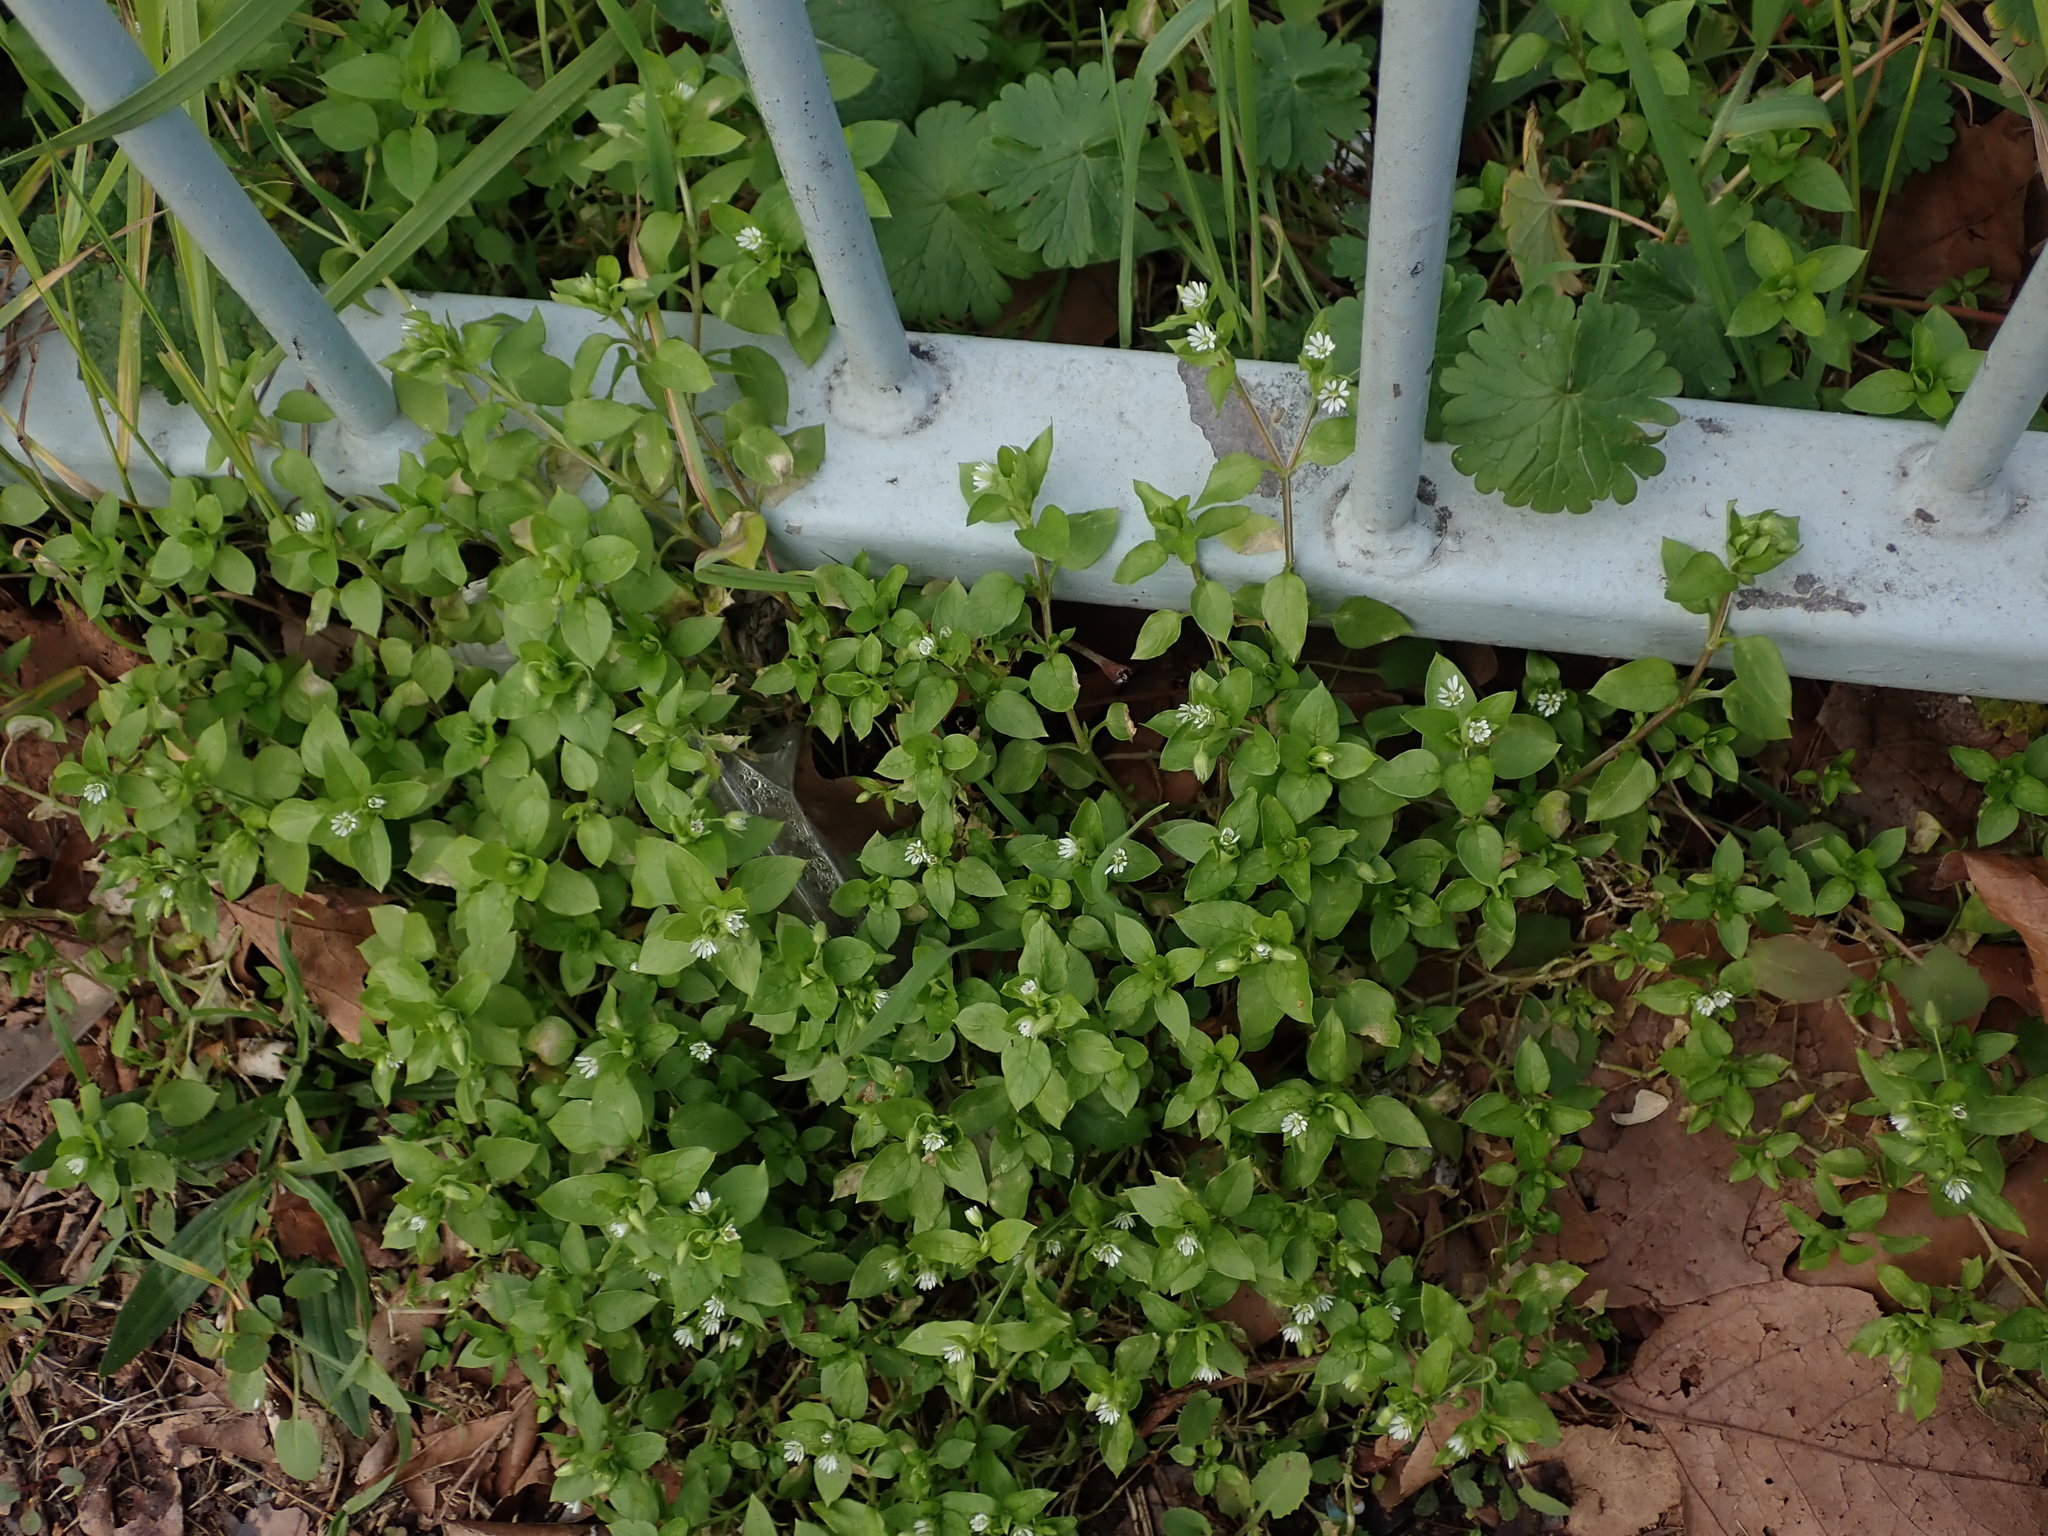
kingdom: Plantae
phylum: Tracheophyta
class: Magnoliopsida
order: Caryophyllales
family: Caryophyllaceae
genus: Stellaria
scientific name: Stellaria media
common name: Common chickweed
